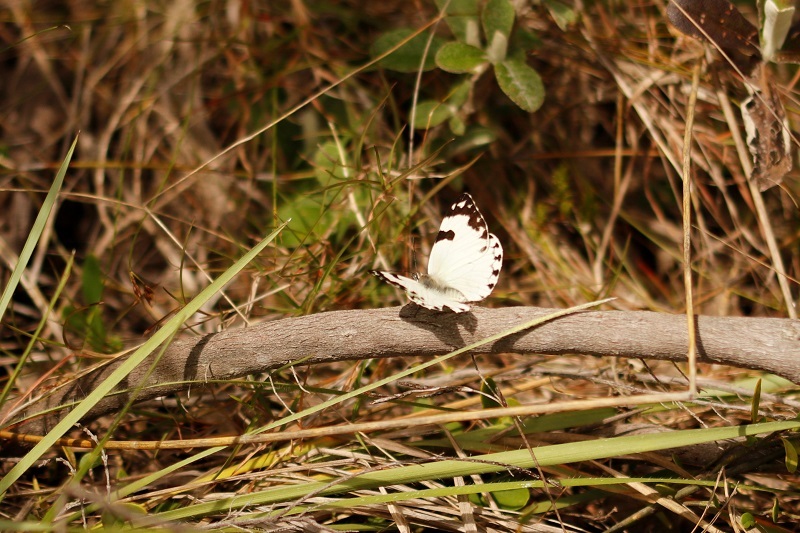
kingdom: Animalia
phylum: Arthropoda
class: Insecta
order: Lepidoptera
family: Pieridae
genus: Belenois
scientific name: Belenois zochalia
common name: Forest caper white
